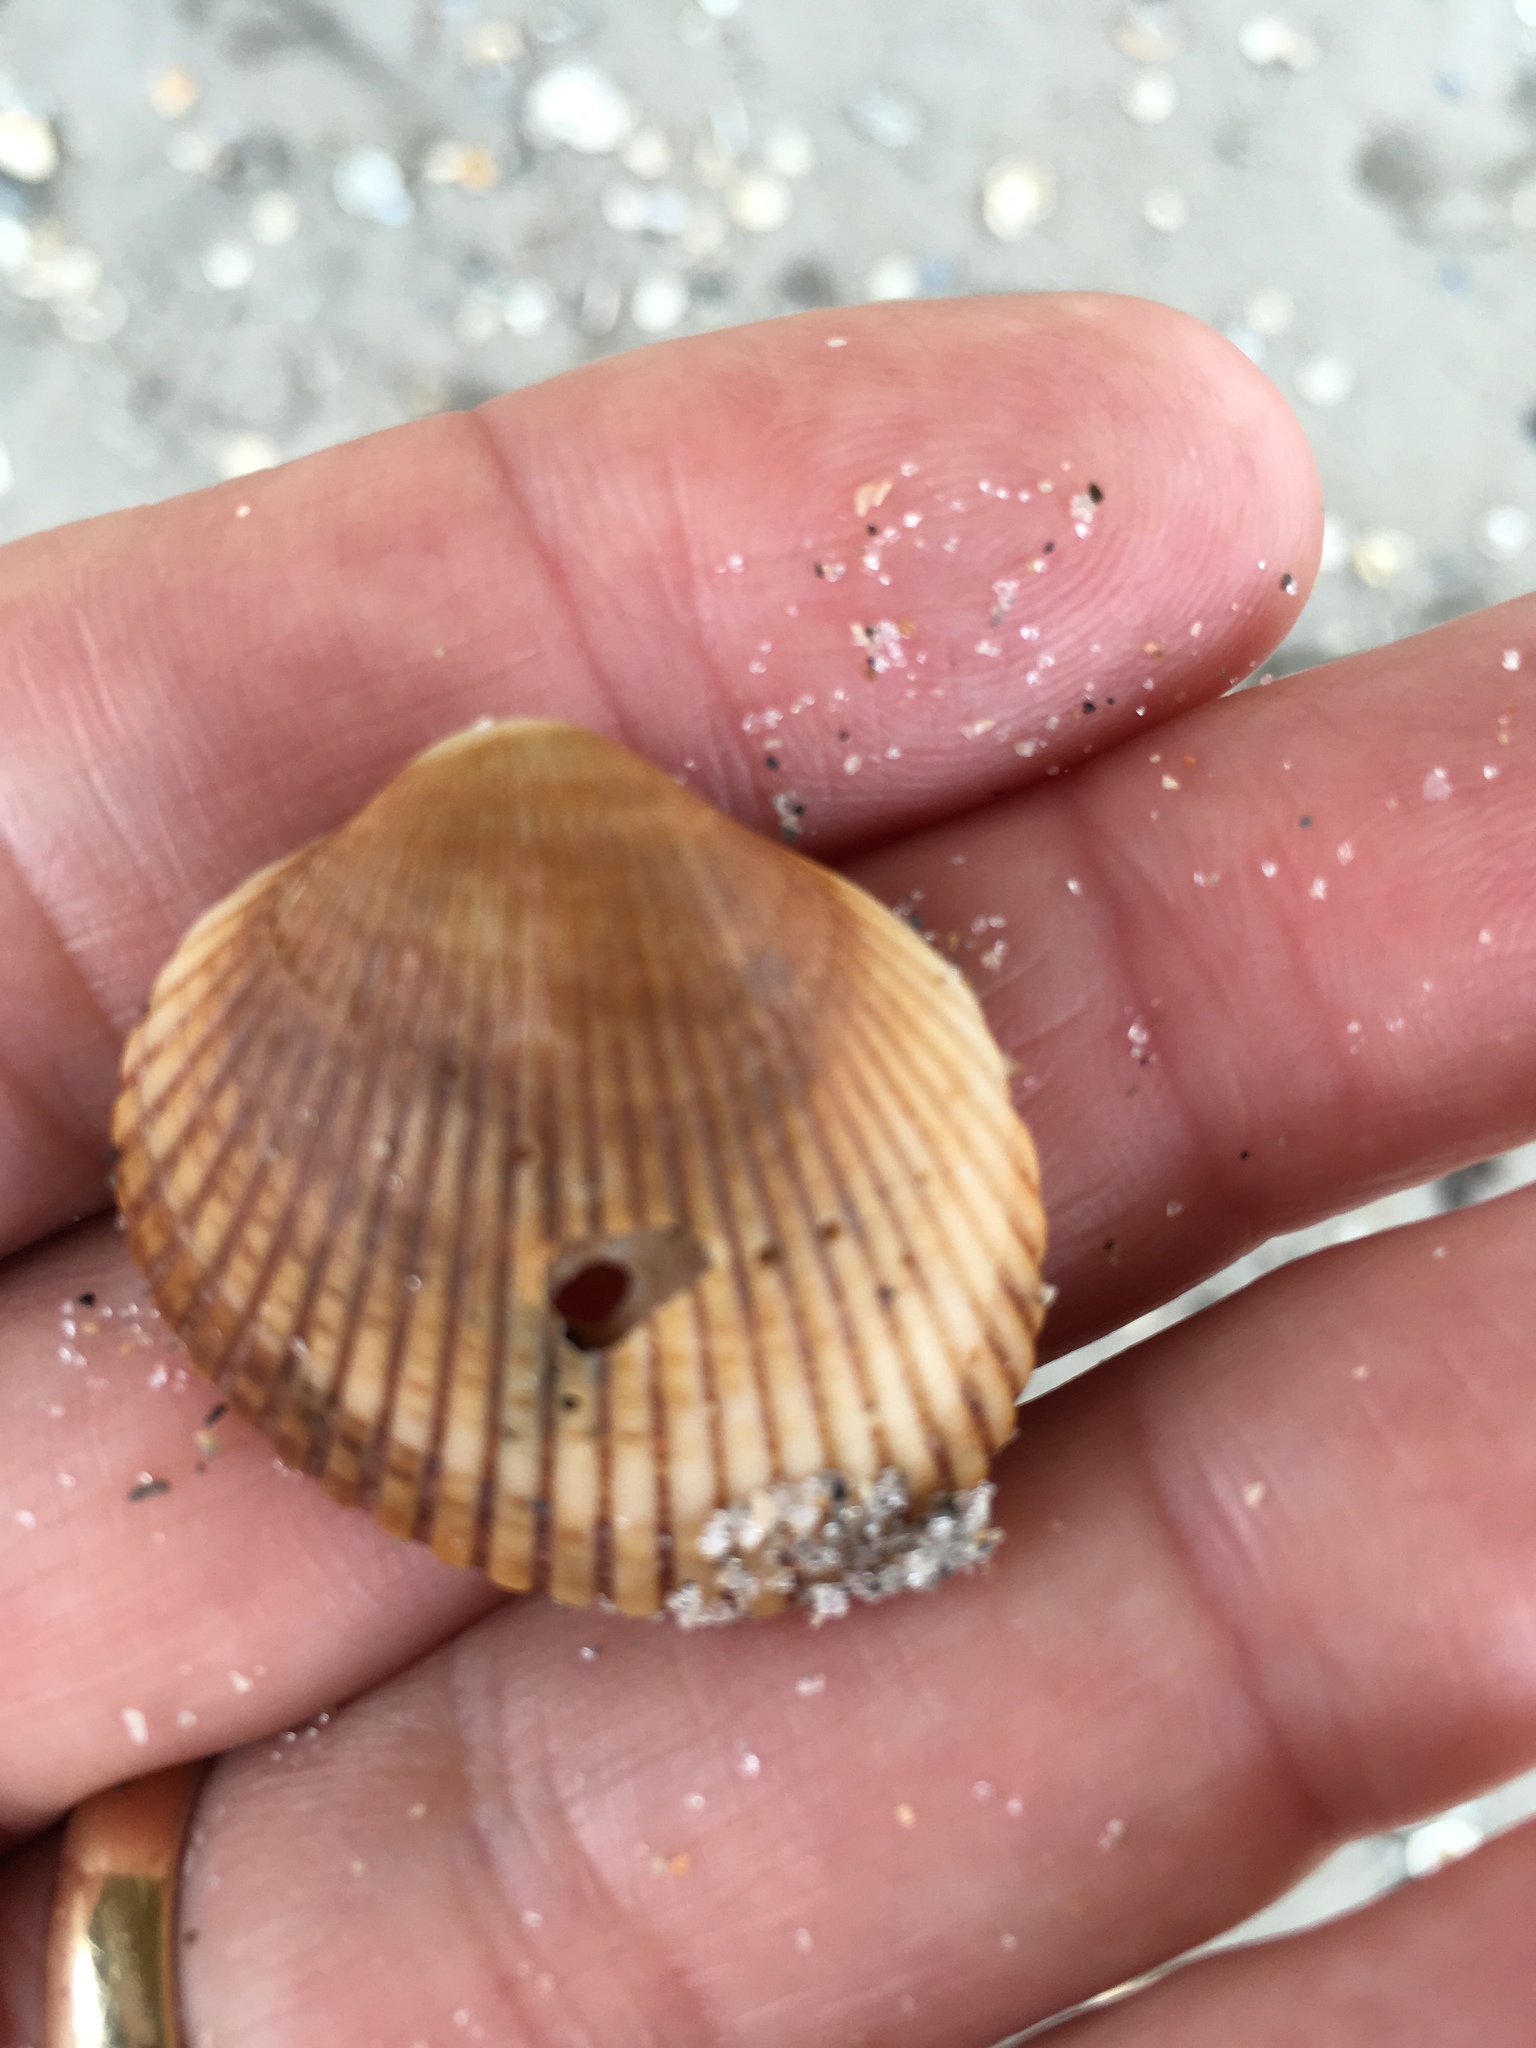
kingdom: Animalia
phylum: Mollusca
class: Bivalvia
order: Arcida
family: Arcidae
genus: Lunarca
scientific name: Lunarca ovalis
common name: Blood ark
